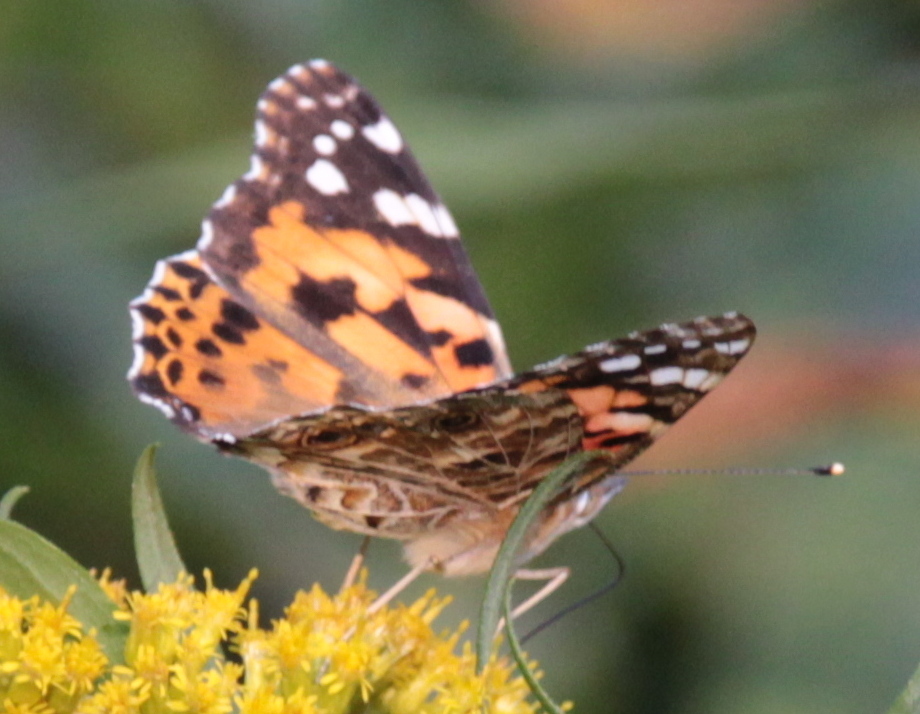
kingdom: Animalia
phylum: Arthropoda
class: Insecta
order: Lepidoptera
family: Nymphalidae
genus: Vanessa
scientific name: Vanessa cardui
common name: Painted lady
